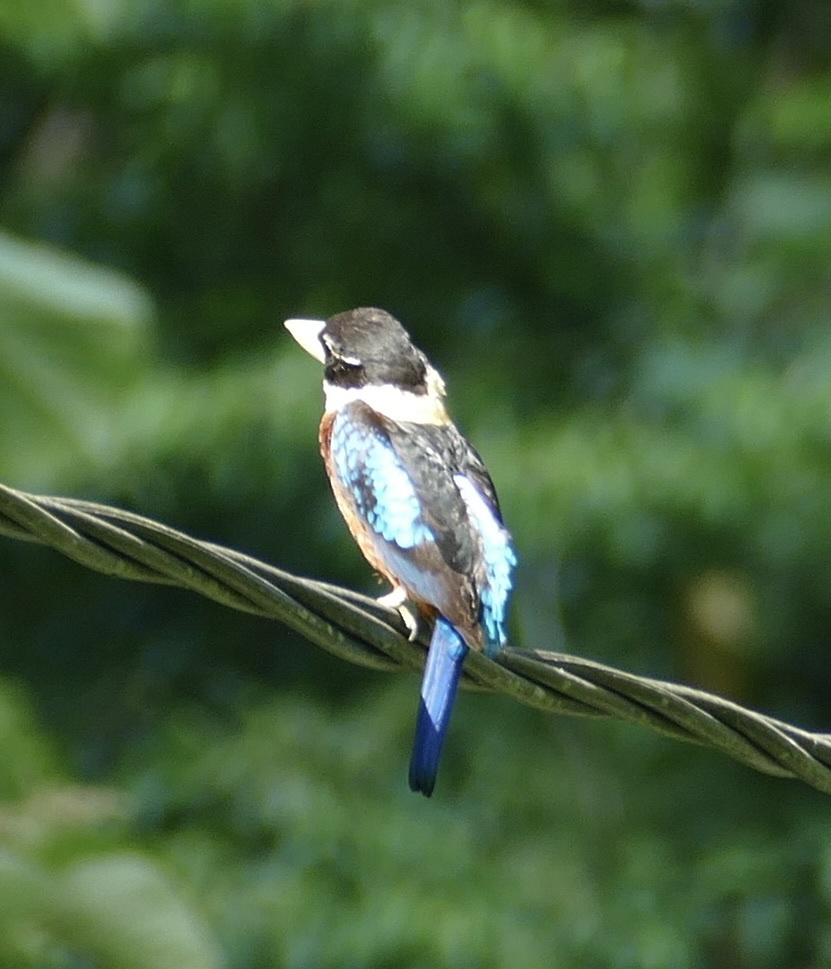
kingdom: Animalia
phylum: Chordata
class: Aves
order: Coraciiformes
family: Alcedinidae
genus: Dacelo
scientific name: Dacelo gaudichaud
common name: Rufous-bellied kookaburra
